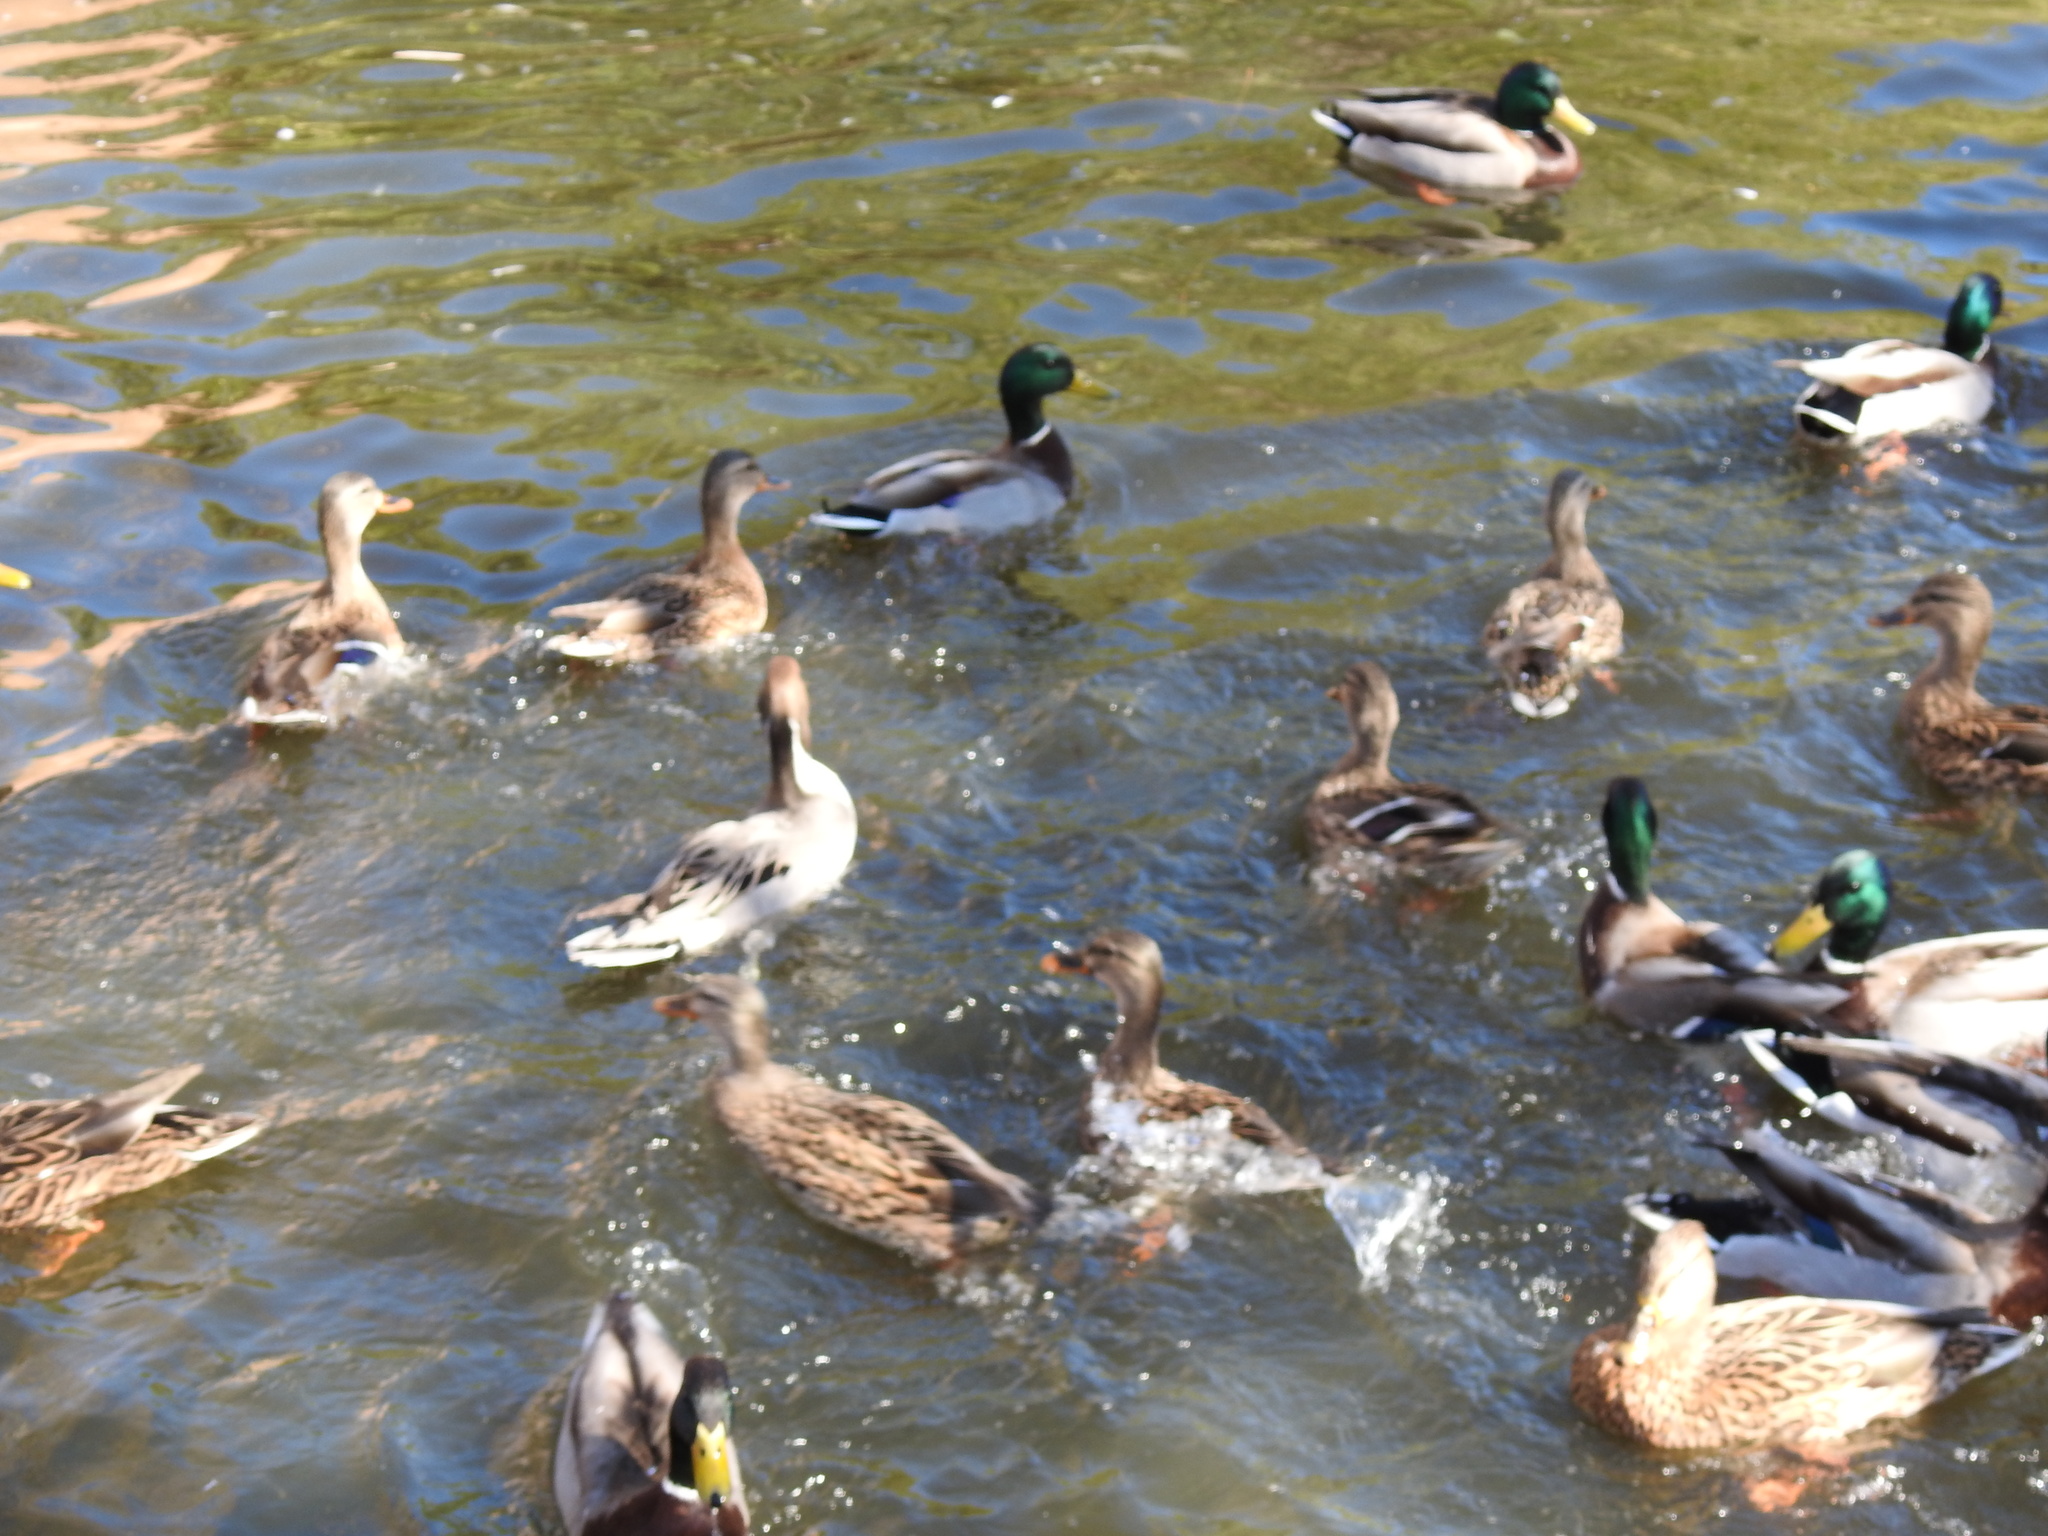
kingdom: Animalia
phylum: Chordata
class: Aves
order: Anseriformes
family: Anatidae
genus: Anas
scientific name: Anas platyrhynchos
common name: Mallard
